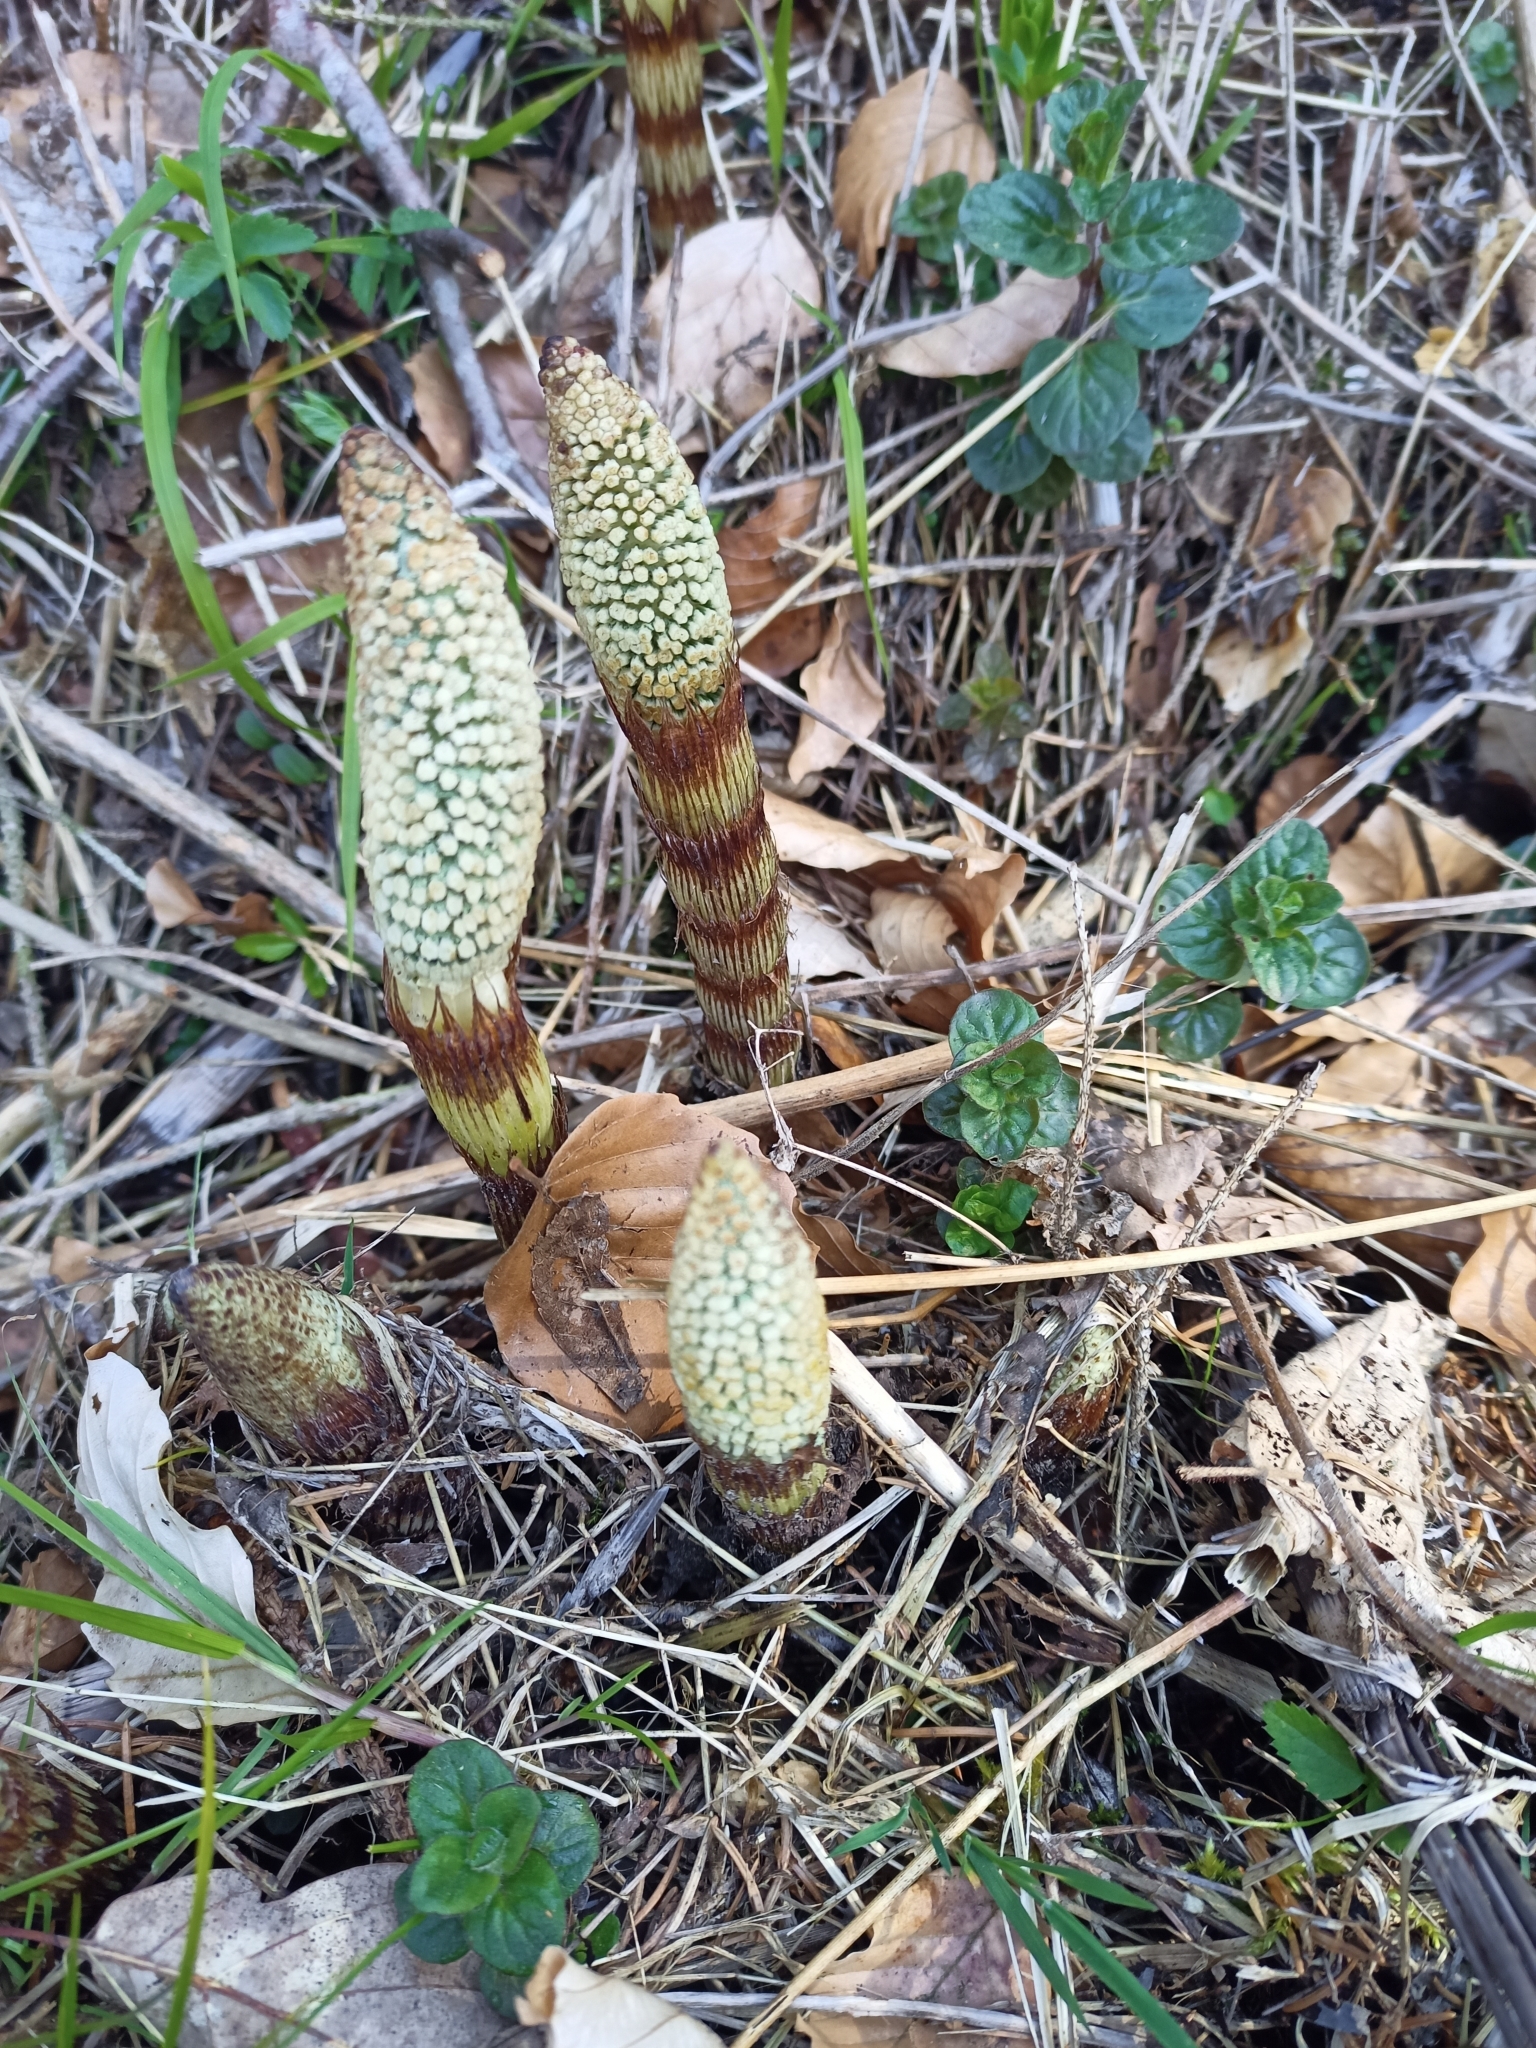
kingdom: Plantae
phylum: Tracheophyta
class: Polypodiopsida
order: Equisetales
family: Equisetaceae
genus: Equisetum
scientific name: Equisetum telmateia
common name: Great horsetail
